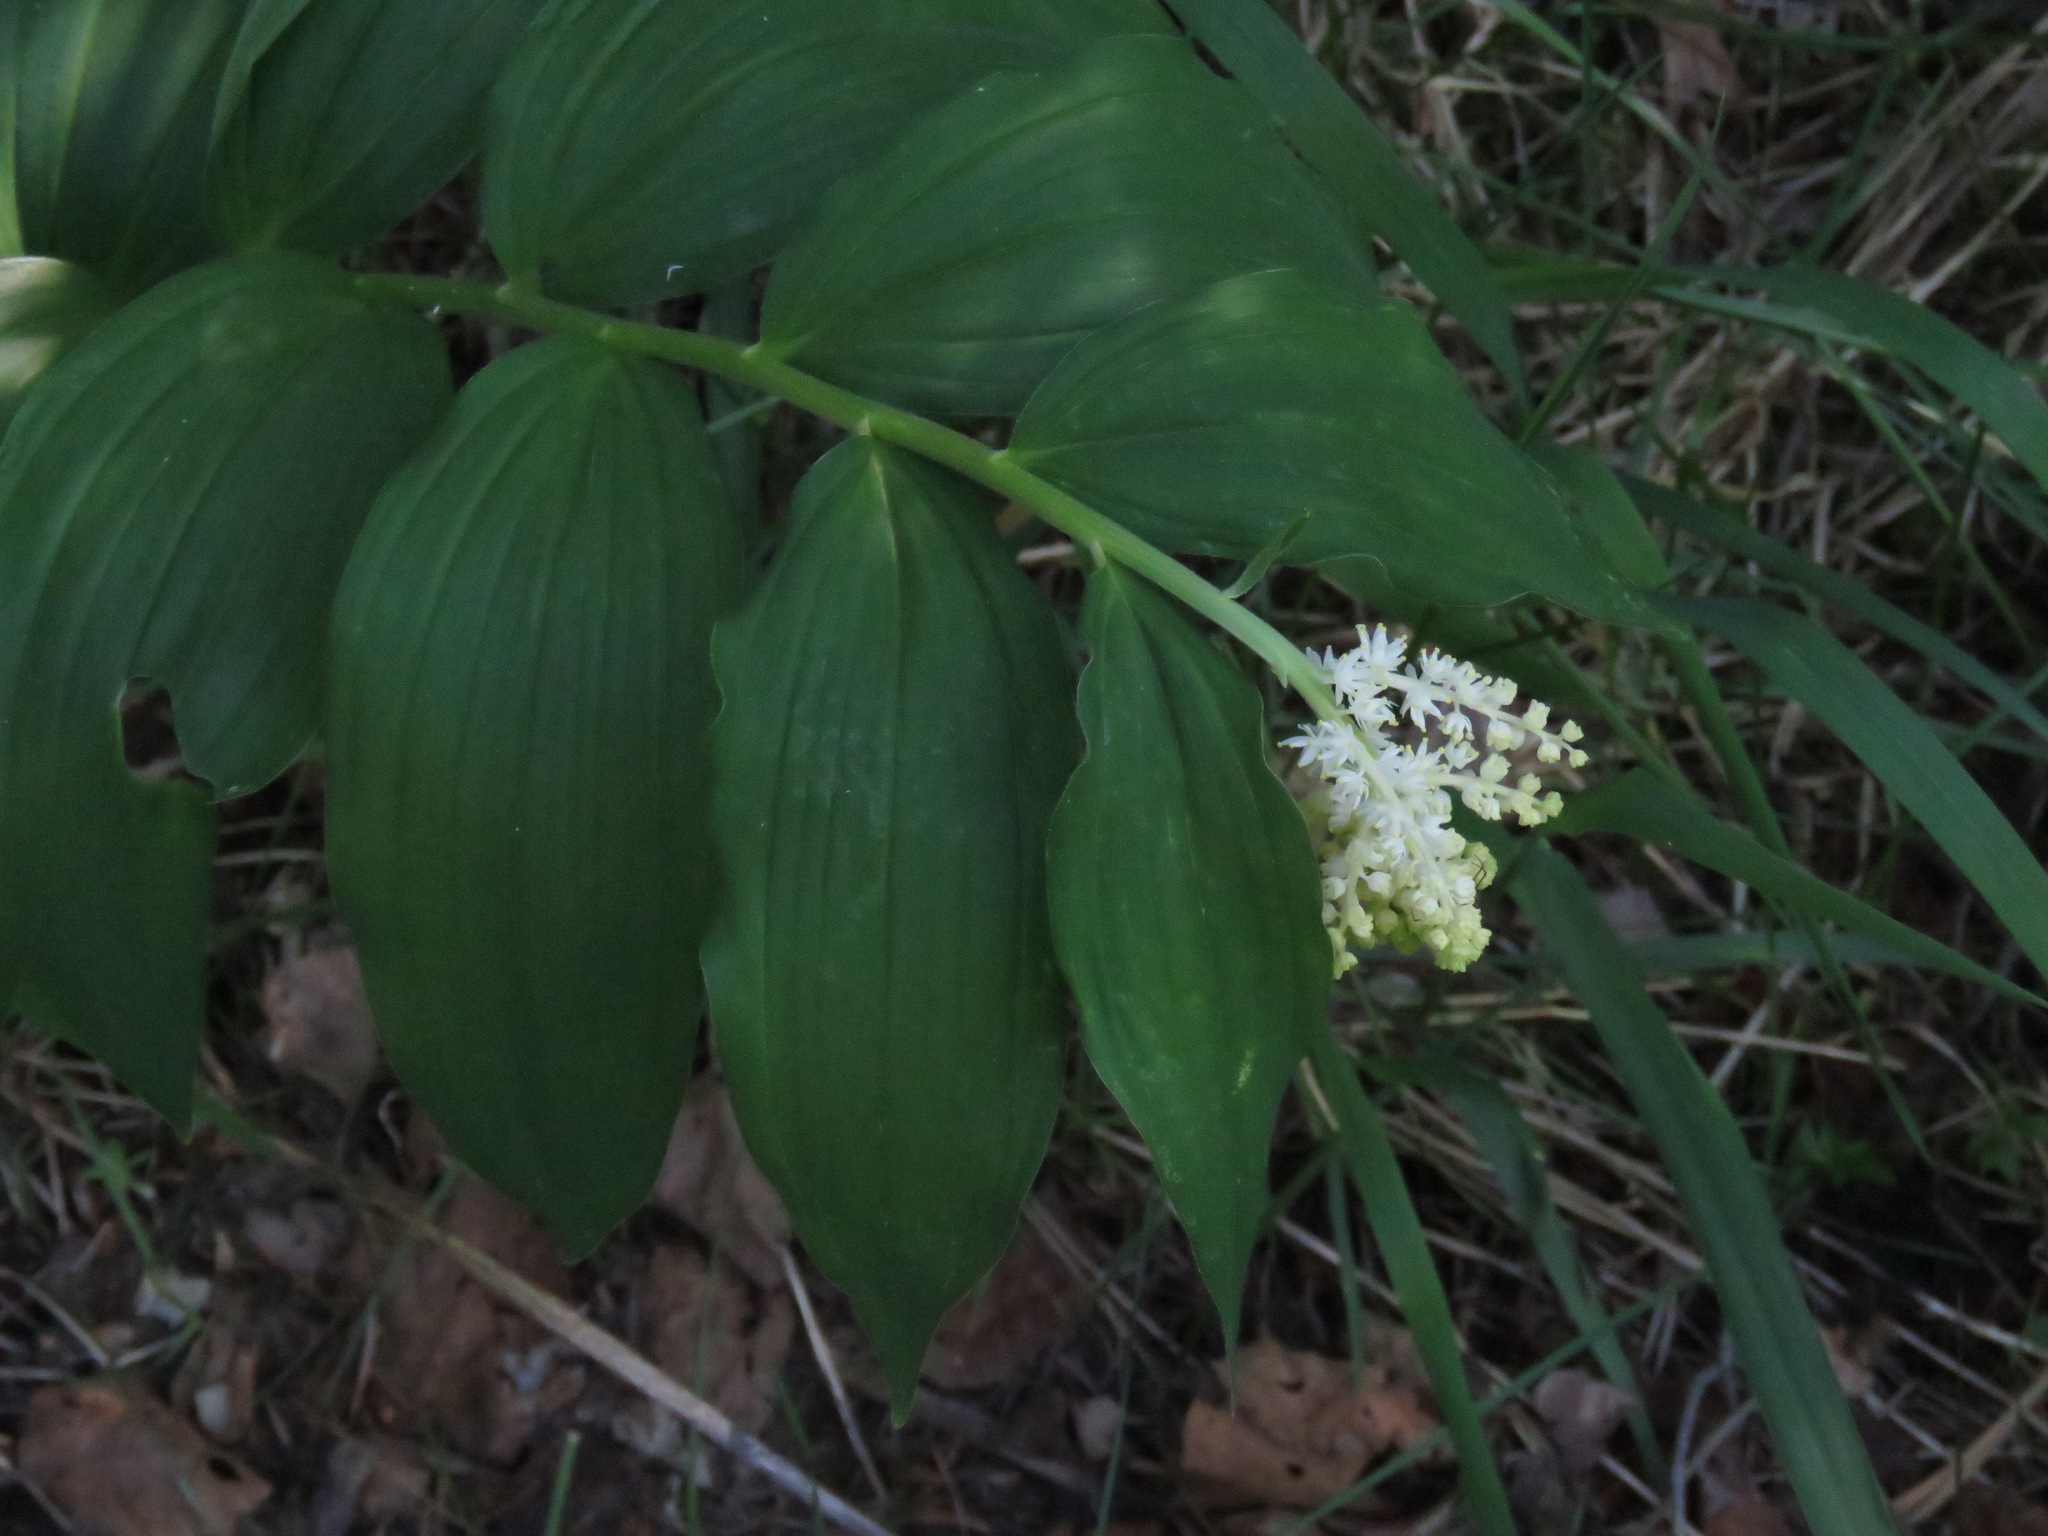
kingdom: Plantae
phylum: Tracheophyta
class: Liliopsida
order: Asparagales
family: Asparagaceae
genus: Maianthemum
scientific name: Maianthemum racemosum
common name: False spikenard
